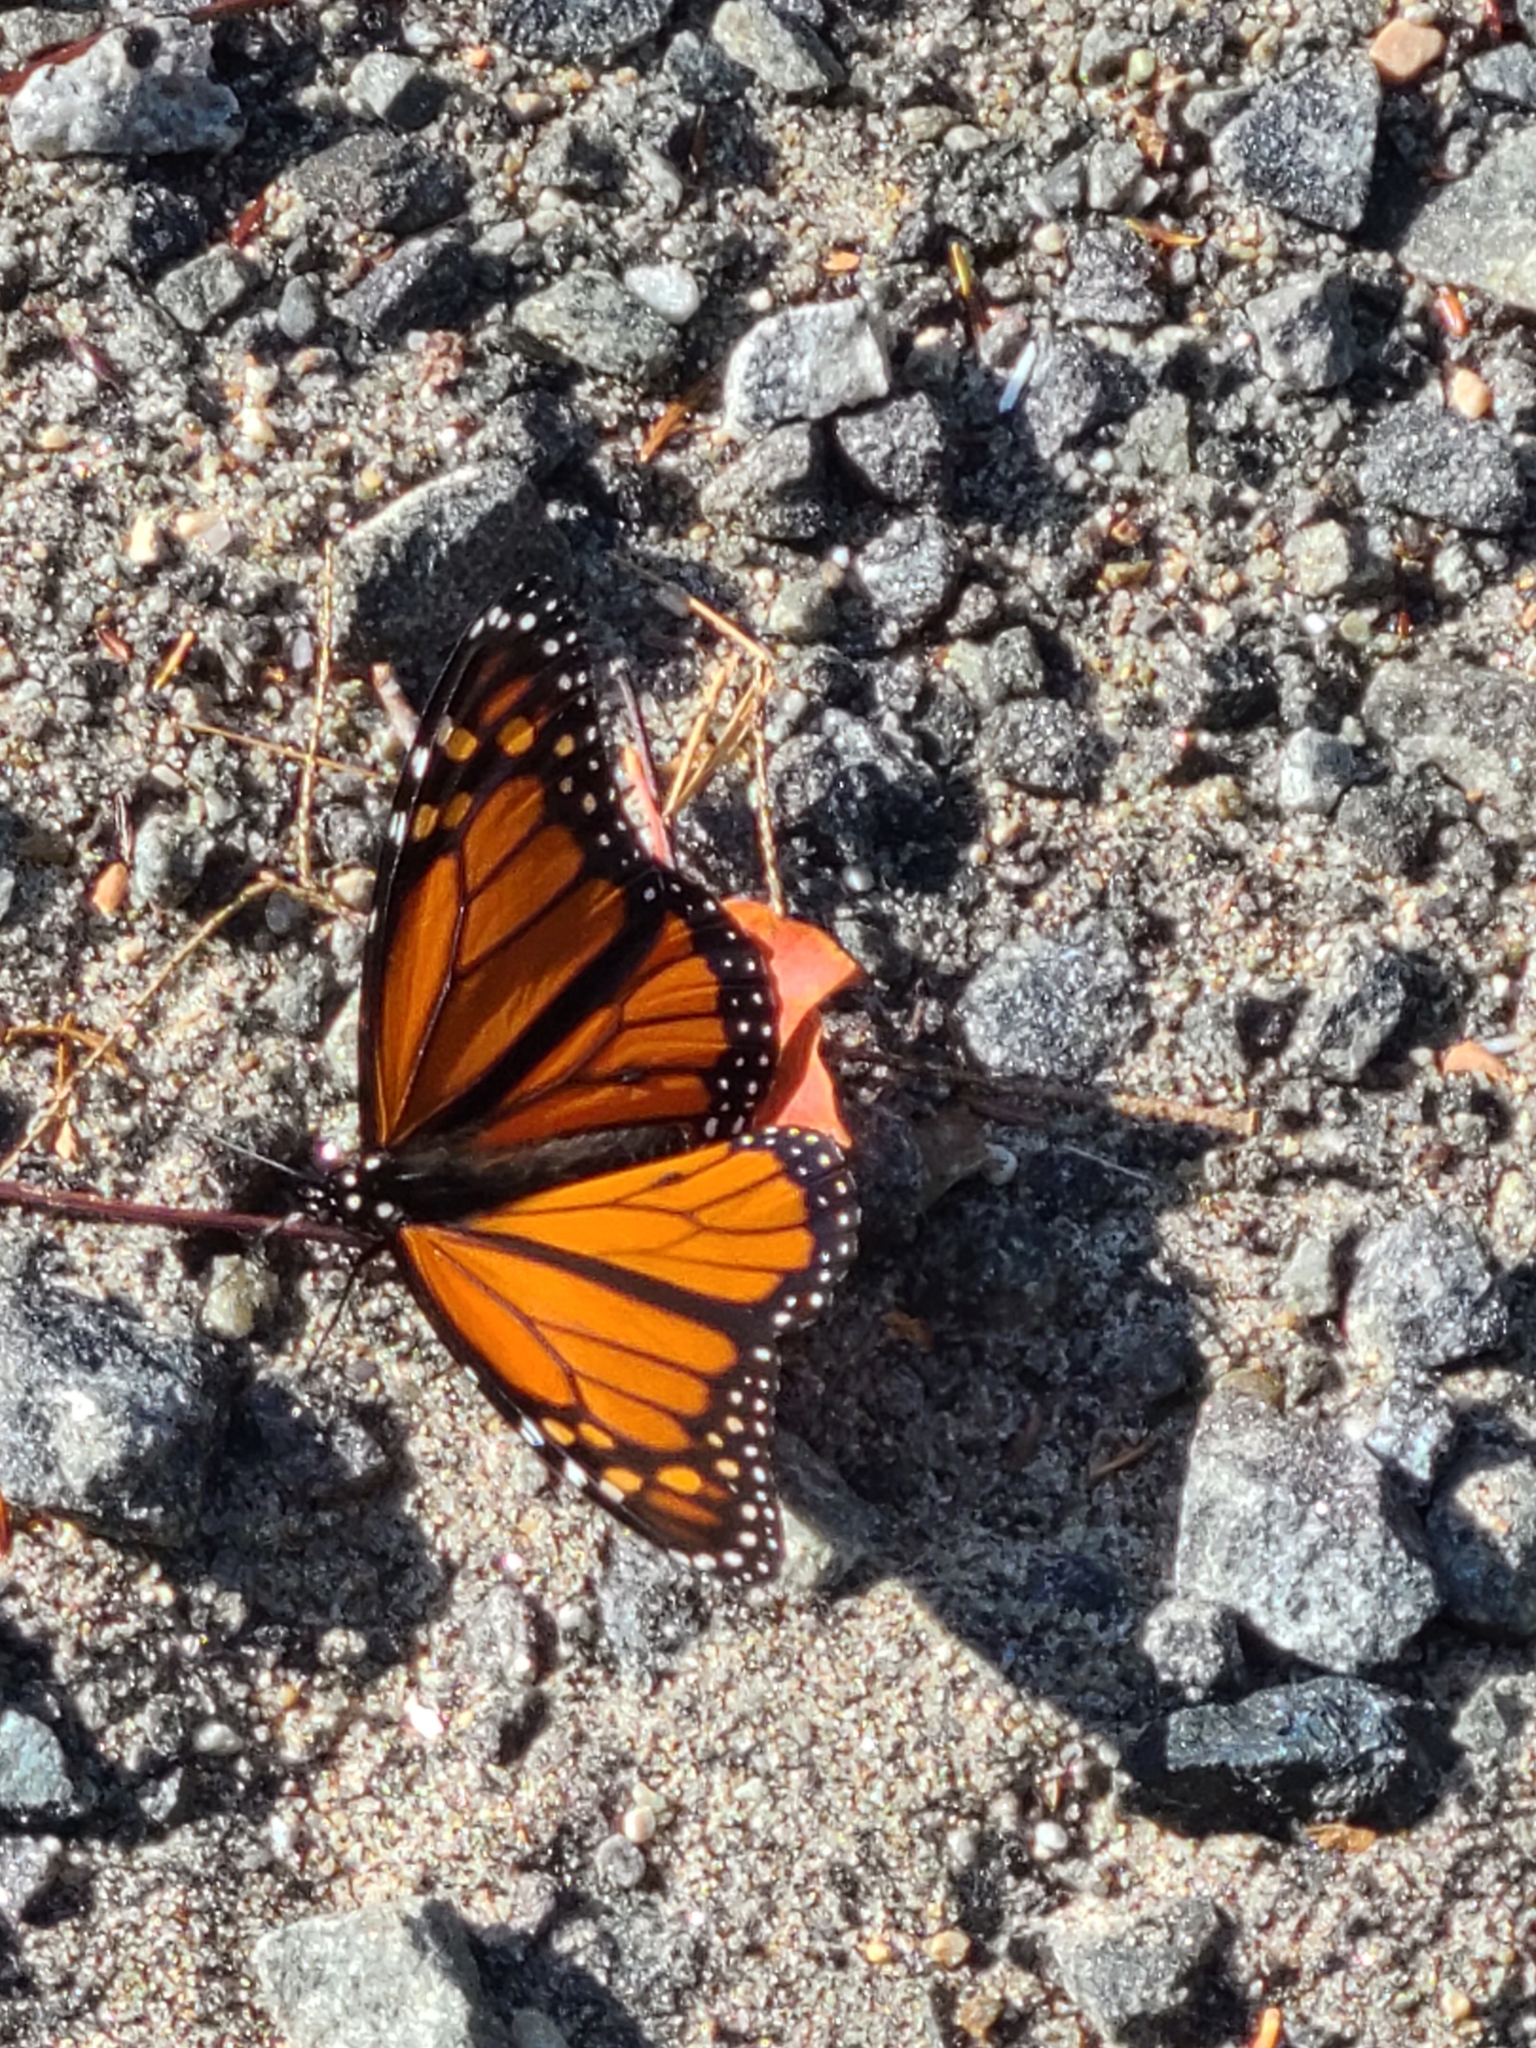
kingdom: Animalia
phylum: Arthropoda
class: Insecta
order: Lepidoptera
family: Nymphalidae
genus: Danaus
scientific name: Danaus plexippus
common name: Monarch
